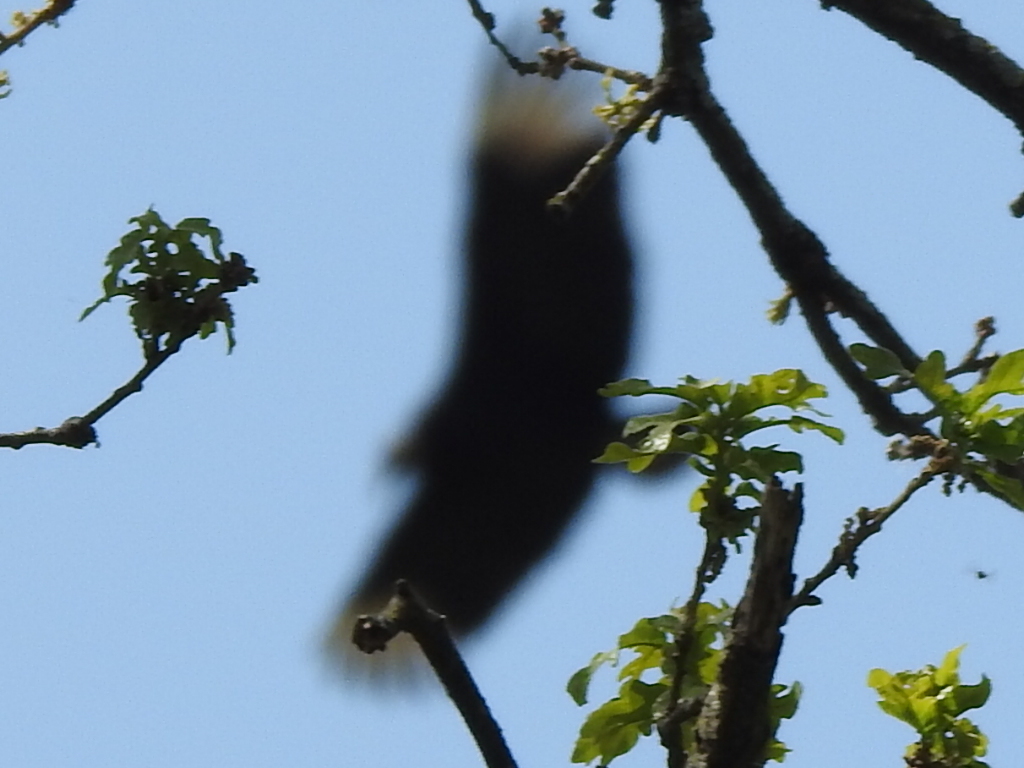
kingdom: Animalia
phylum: Chordata
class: Aves
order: Accipitriformes
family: Cathartidae
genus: Coragyps
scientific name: Coragyps atratus
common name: Black vulture
